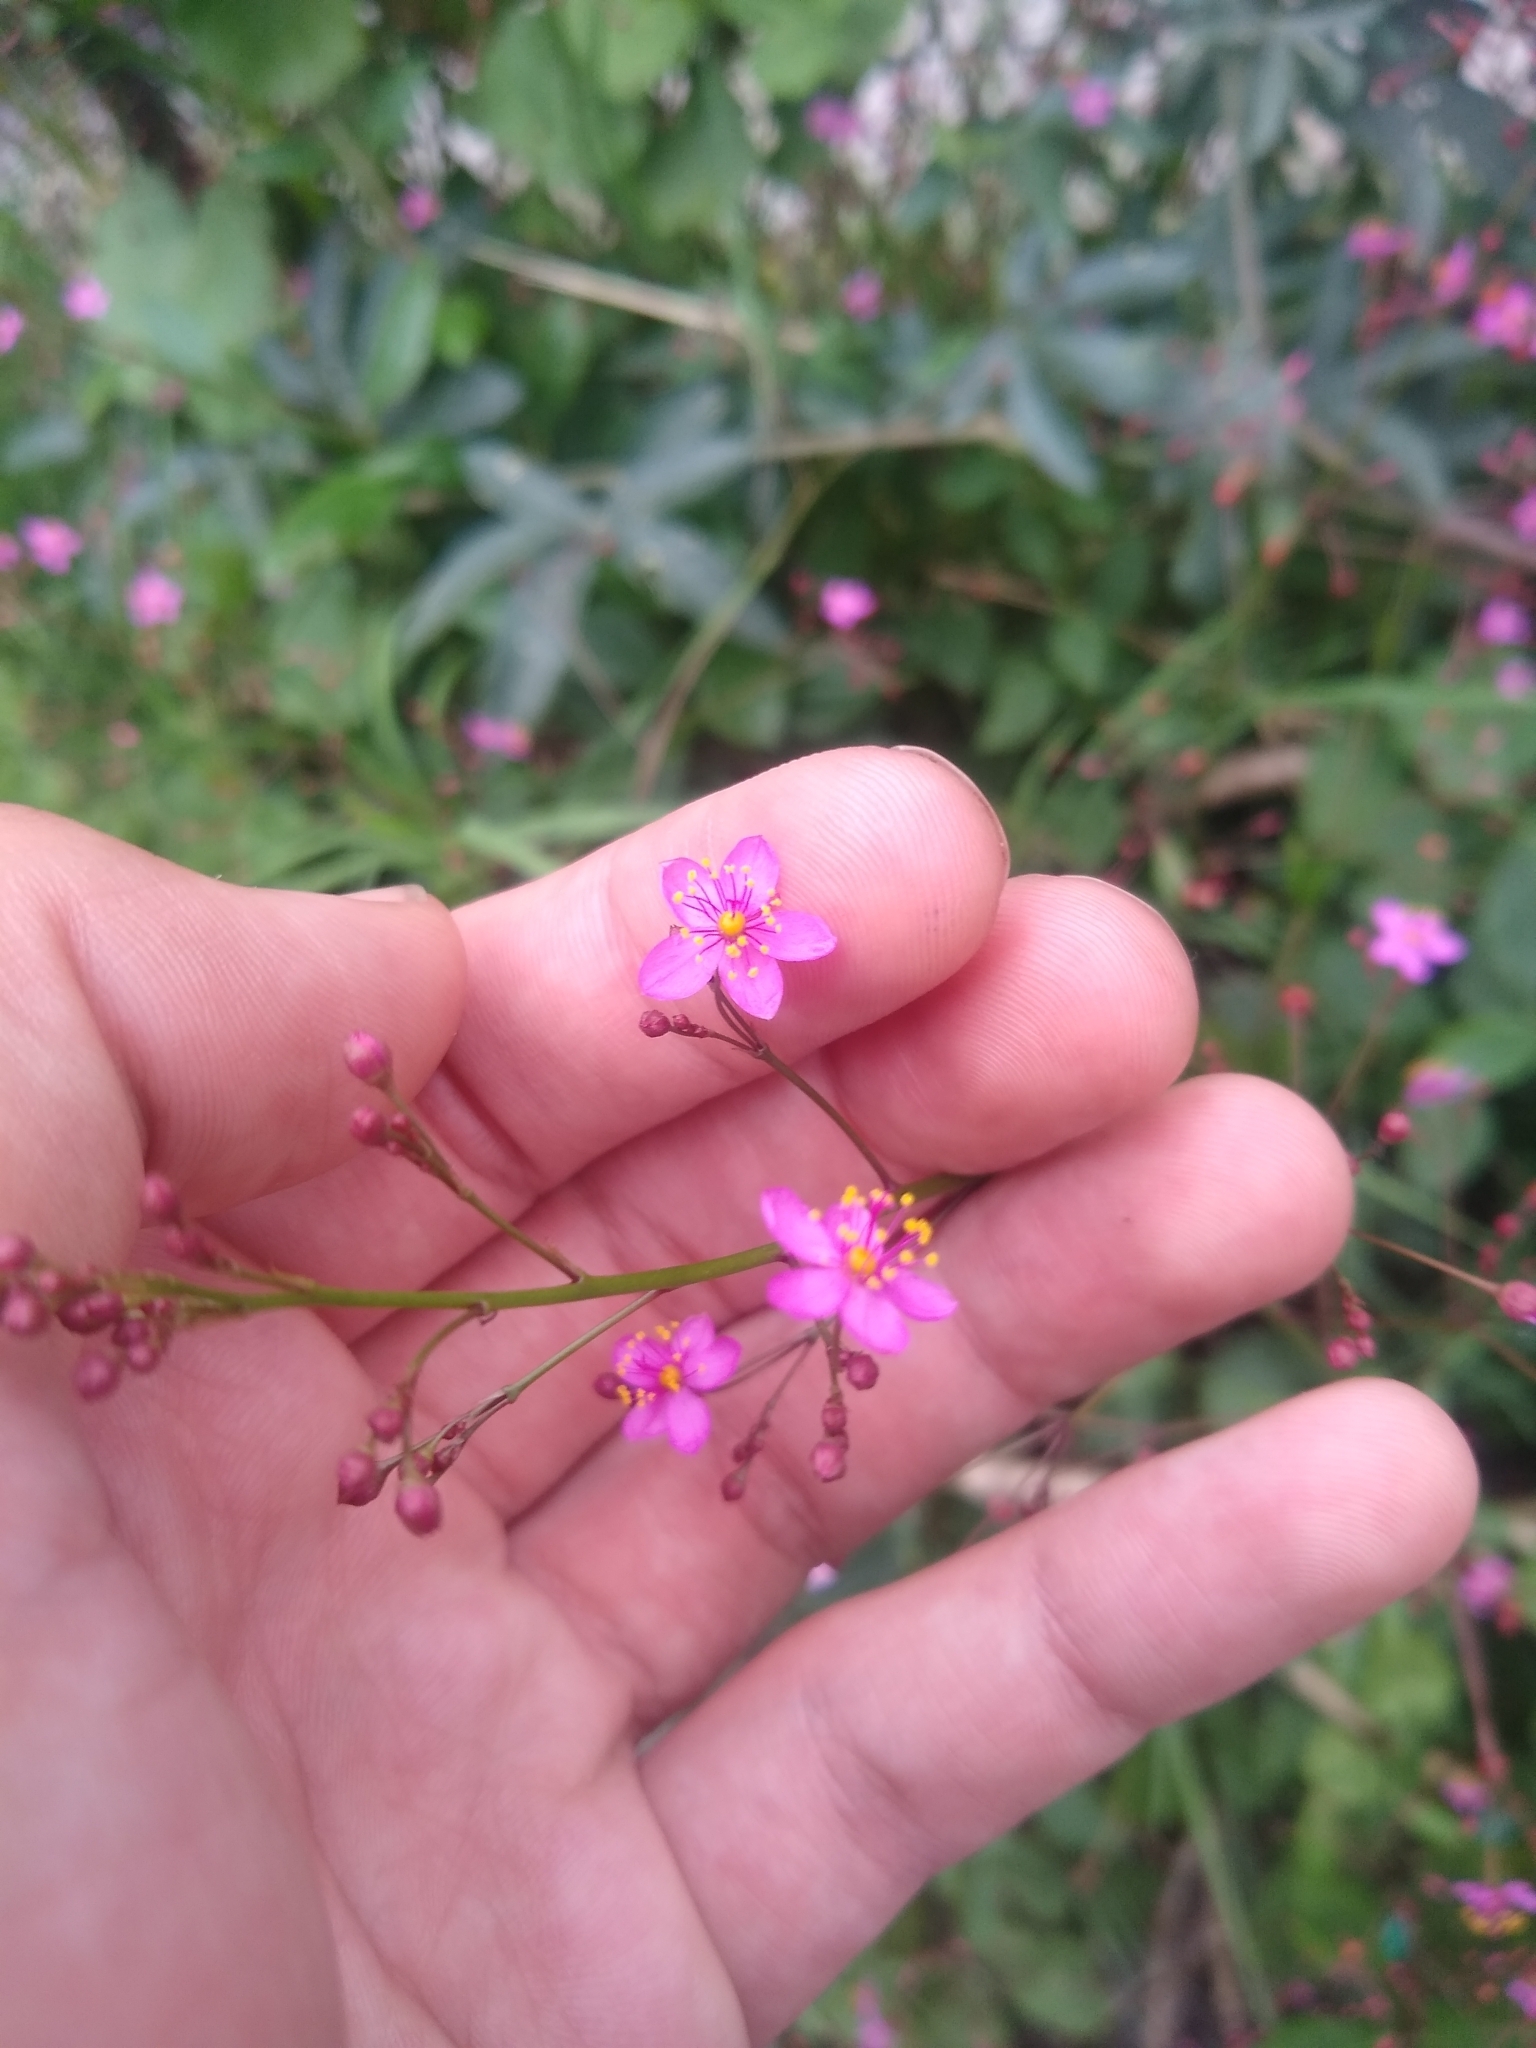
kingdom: Plantae
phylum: Tracheophyta
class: Magnoliopsida
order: Caryophyllales
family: Talinaceae
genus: Talinum
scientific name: Talinum paniculatum
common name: Jewels of opar
